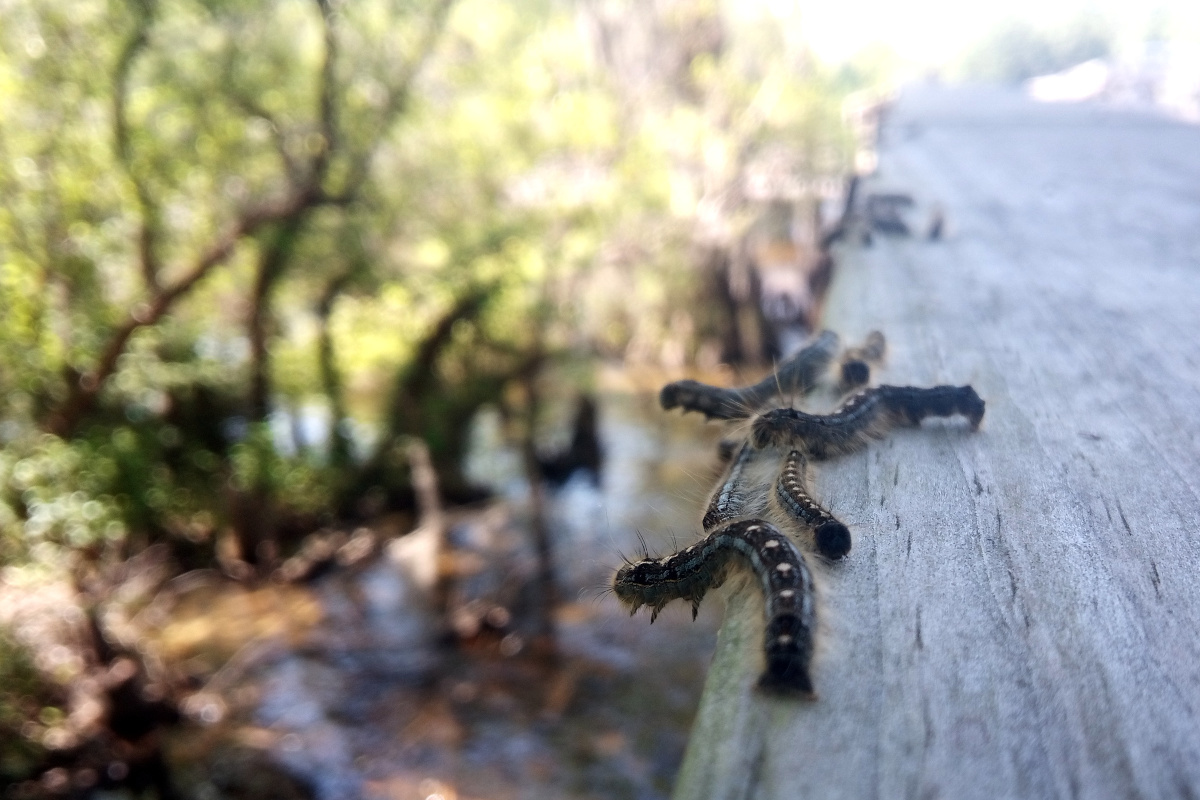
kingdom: Animalia
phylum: Arthropoda
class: Insecta
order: Lepidoptera
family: Lasiocampidae
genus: Malacosoma
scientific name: Malacosoma disstria
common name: Forest tent caterpillar
